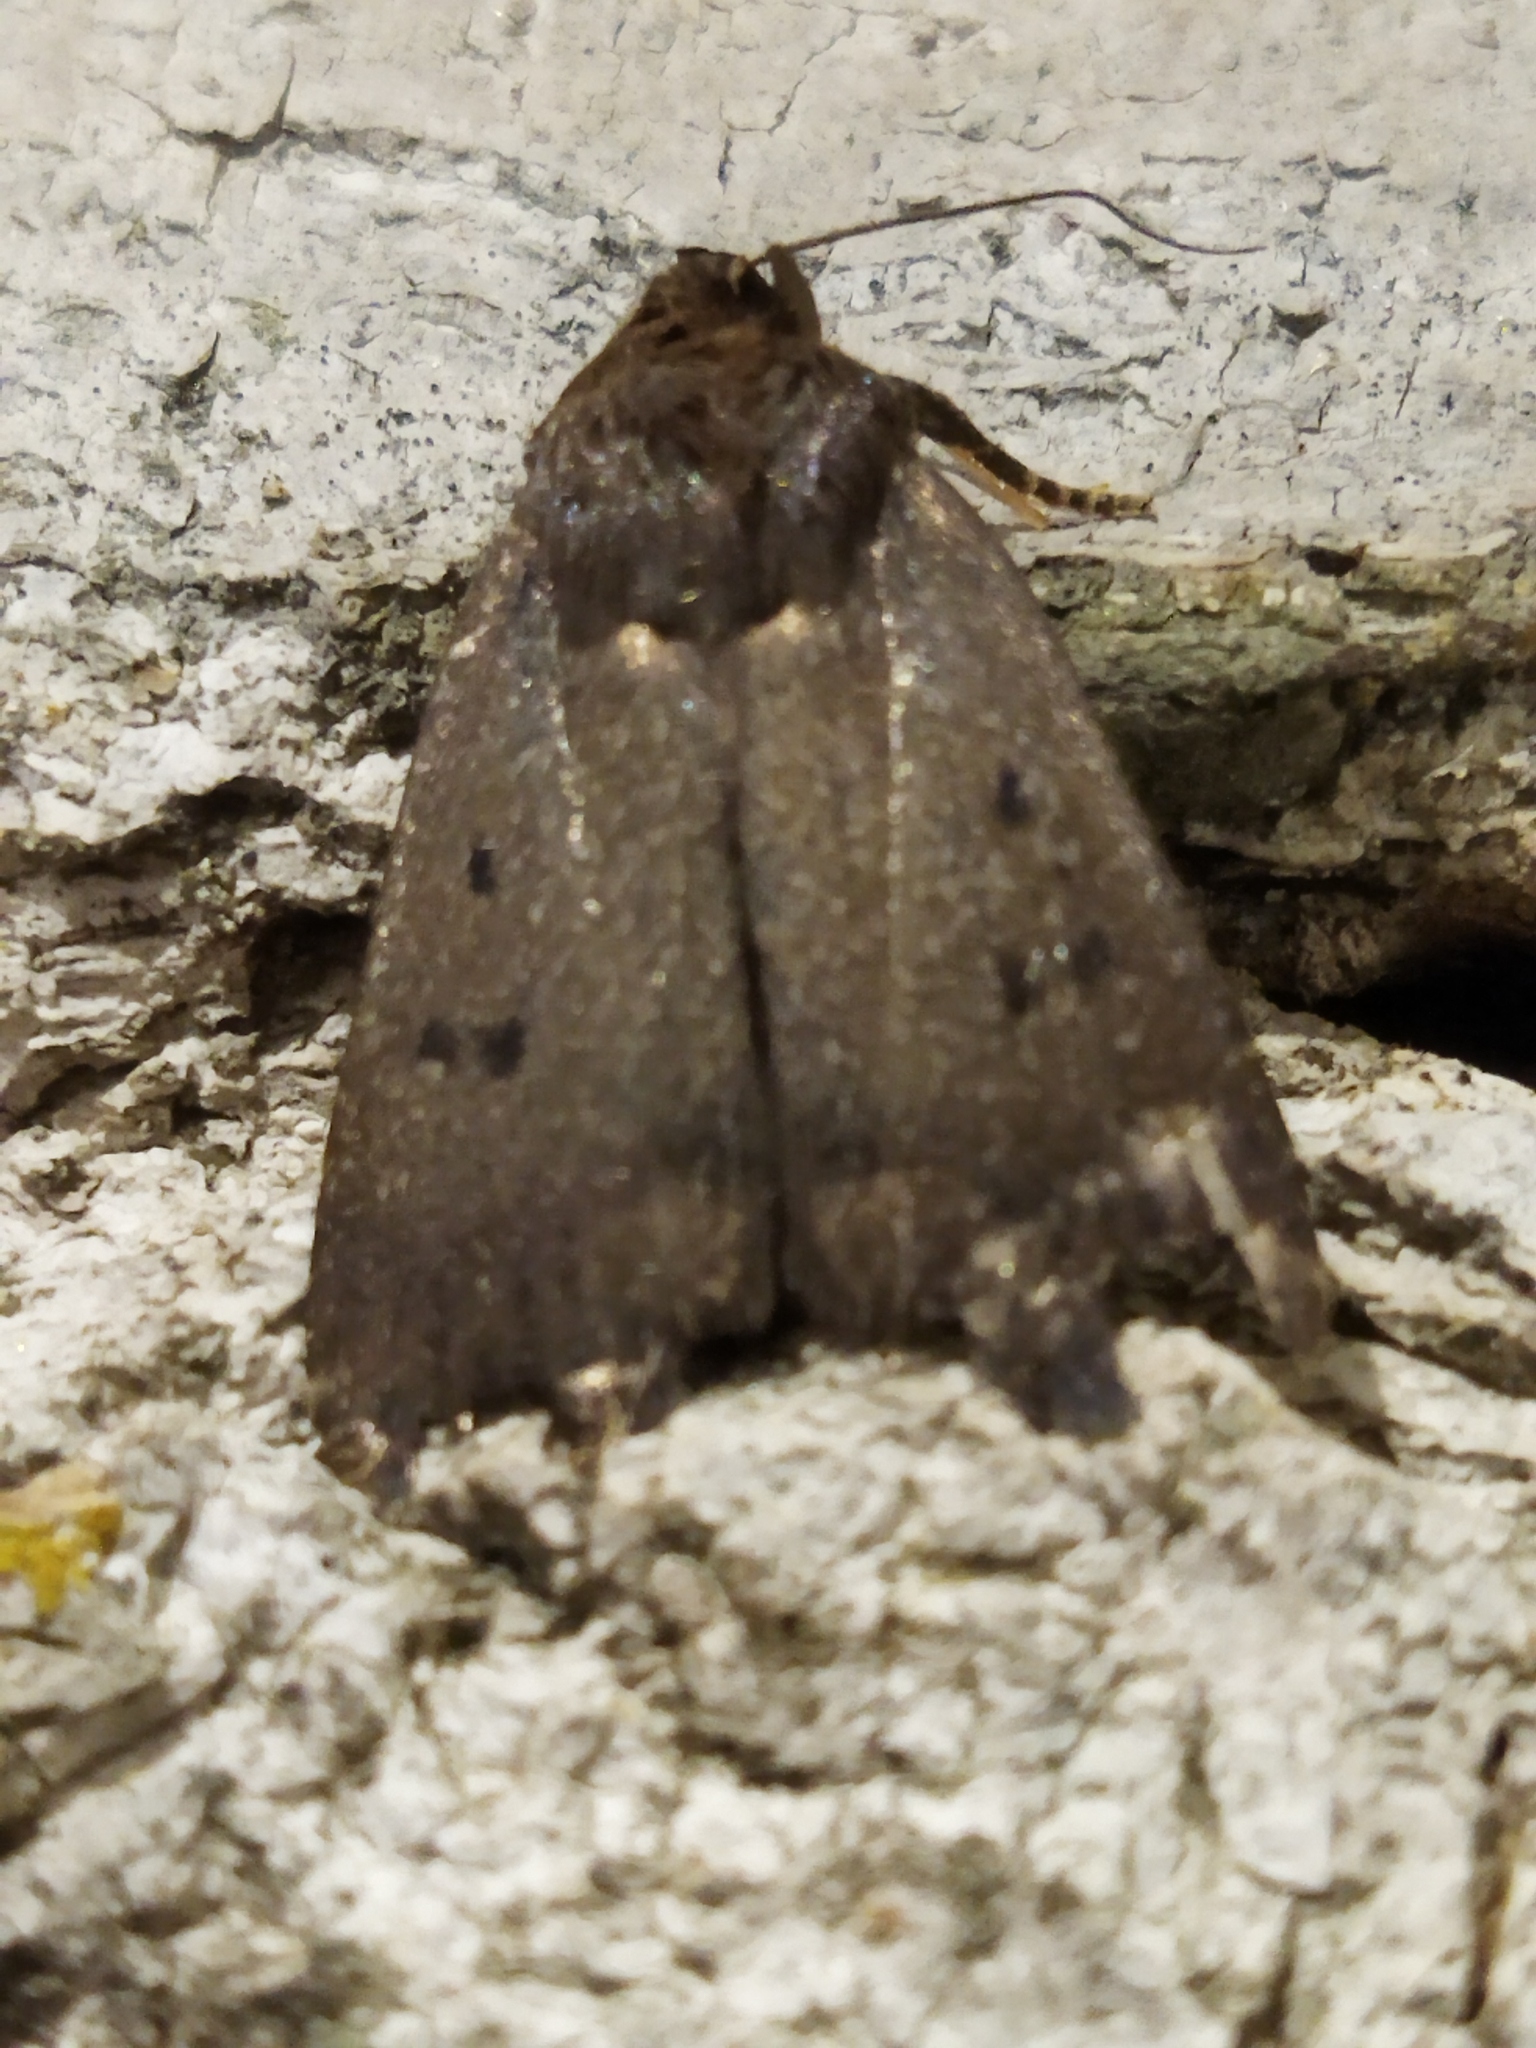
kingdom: Animalia
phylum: Arthropoda
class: Insecta
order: Lepidoptera
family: Noctuidae
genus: Amphipyra
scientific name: Amphipyra tragopoginis
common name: Mouse moth
